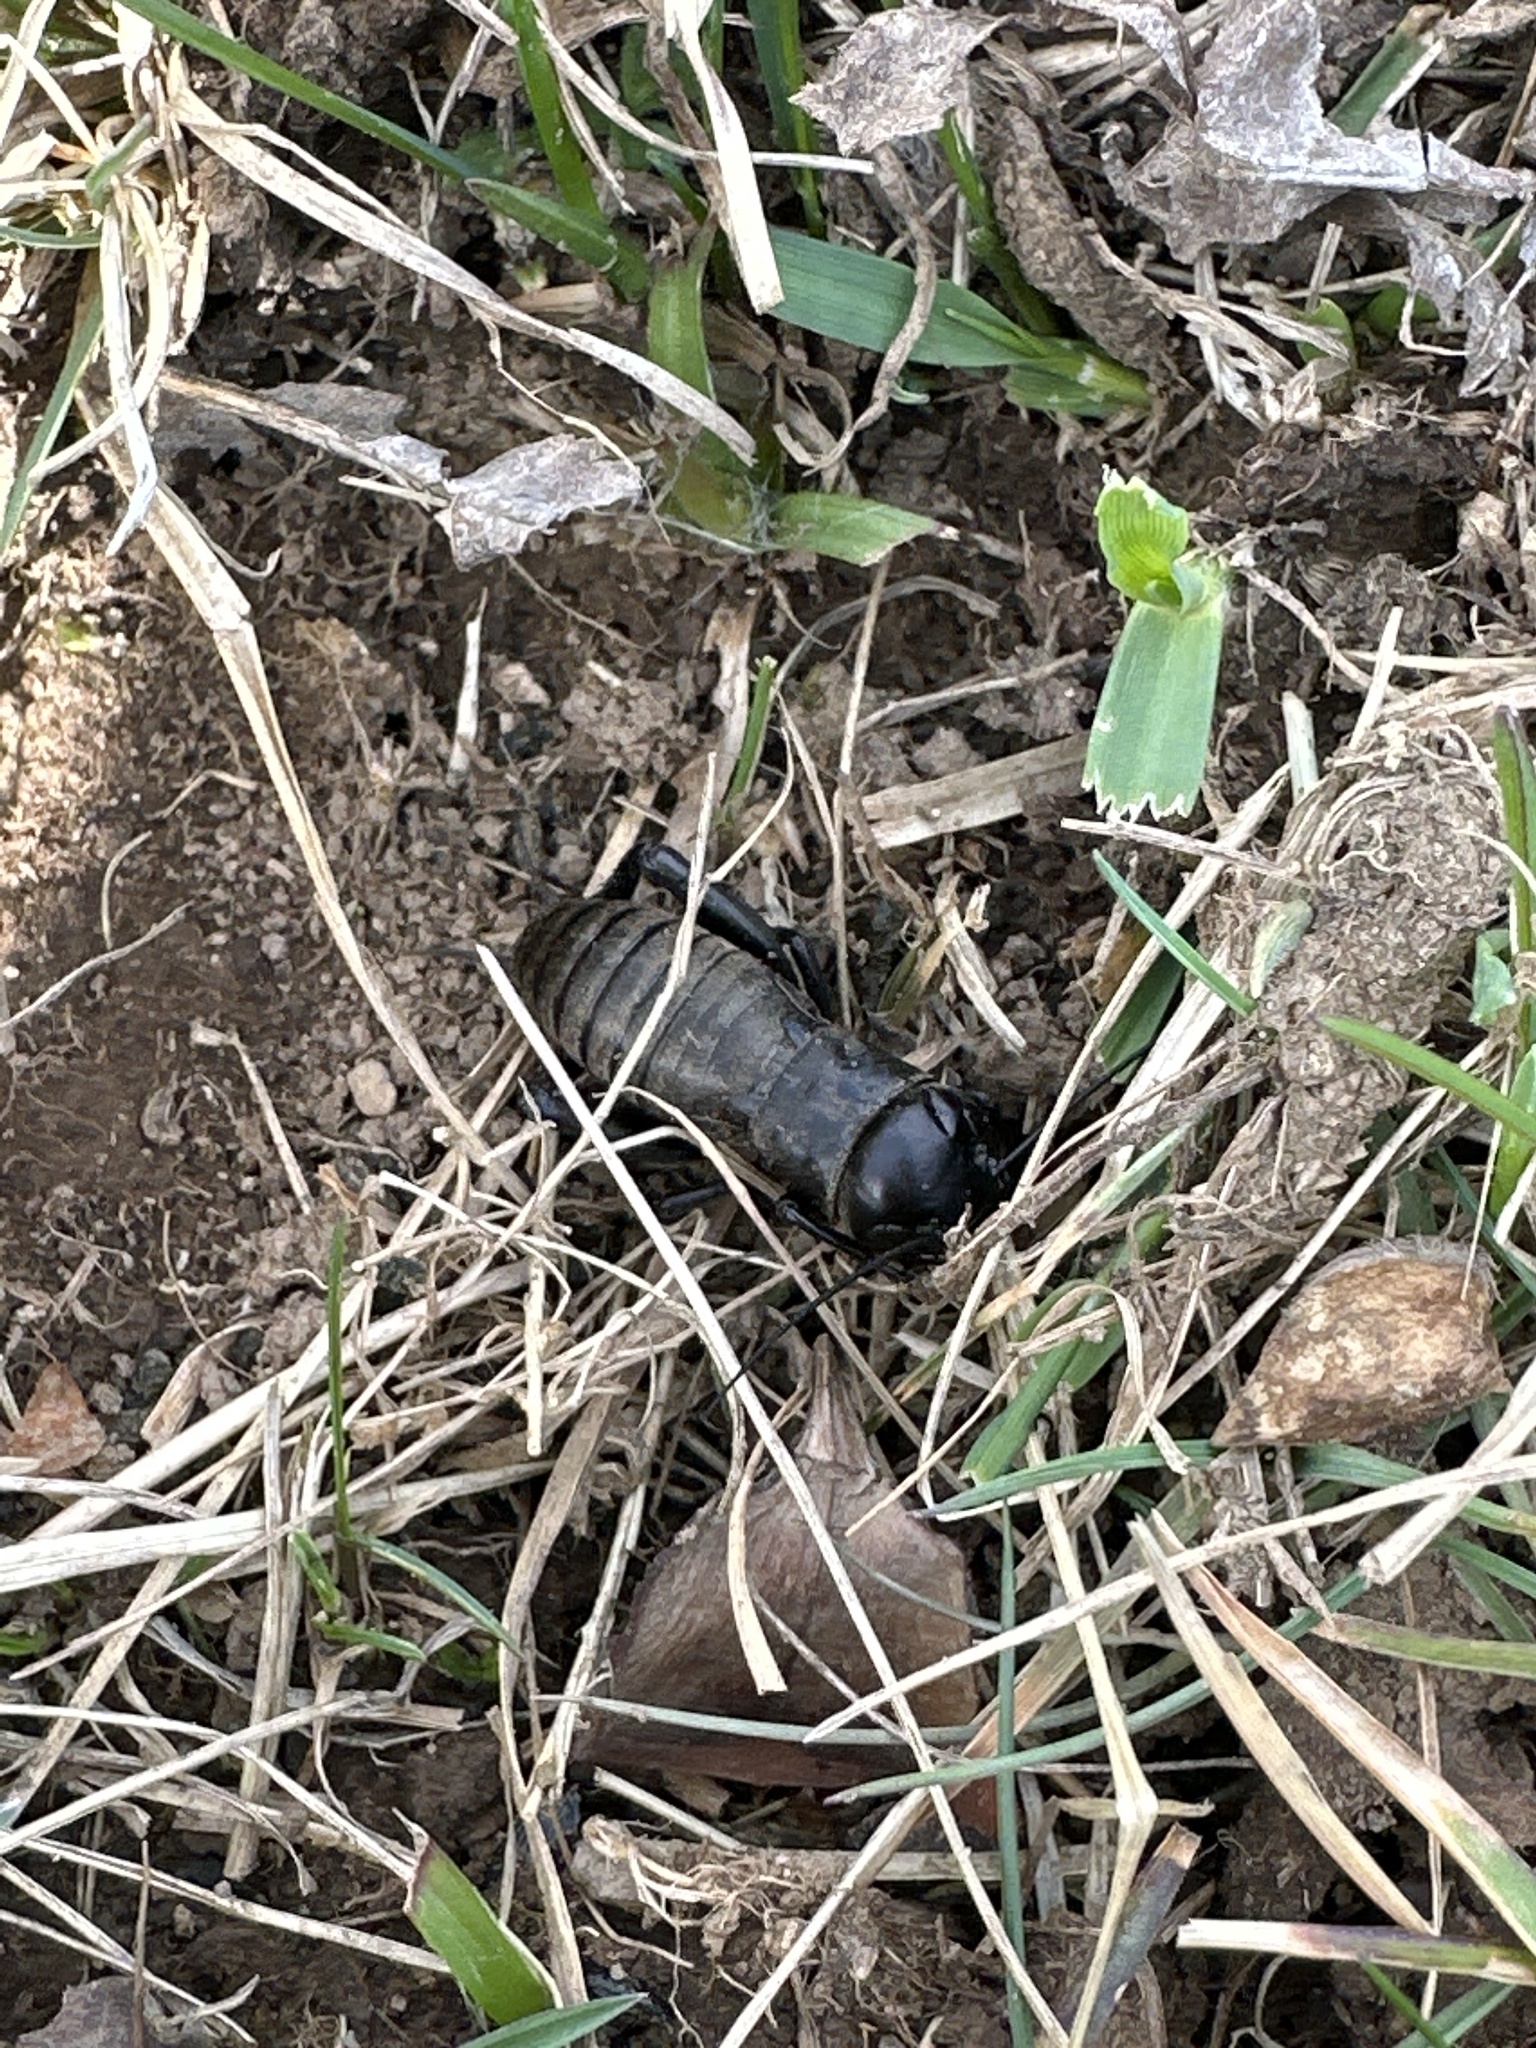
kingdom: Animalia
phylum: Arthropoda
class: Insecta
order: Orthoptera
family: Gryllidae
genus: Gryllus
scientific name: Gryllus campestris
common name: Field cricket
